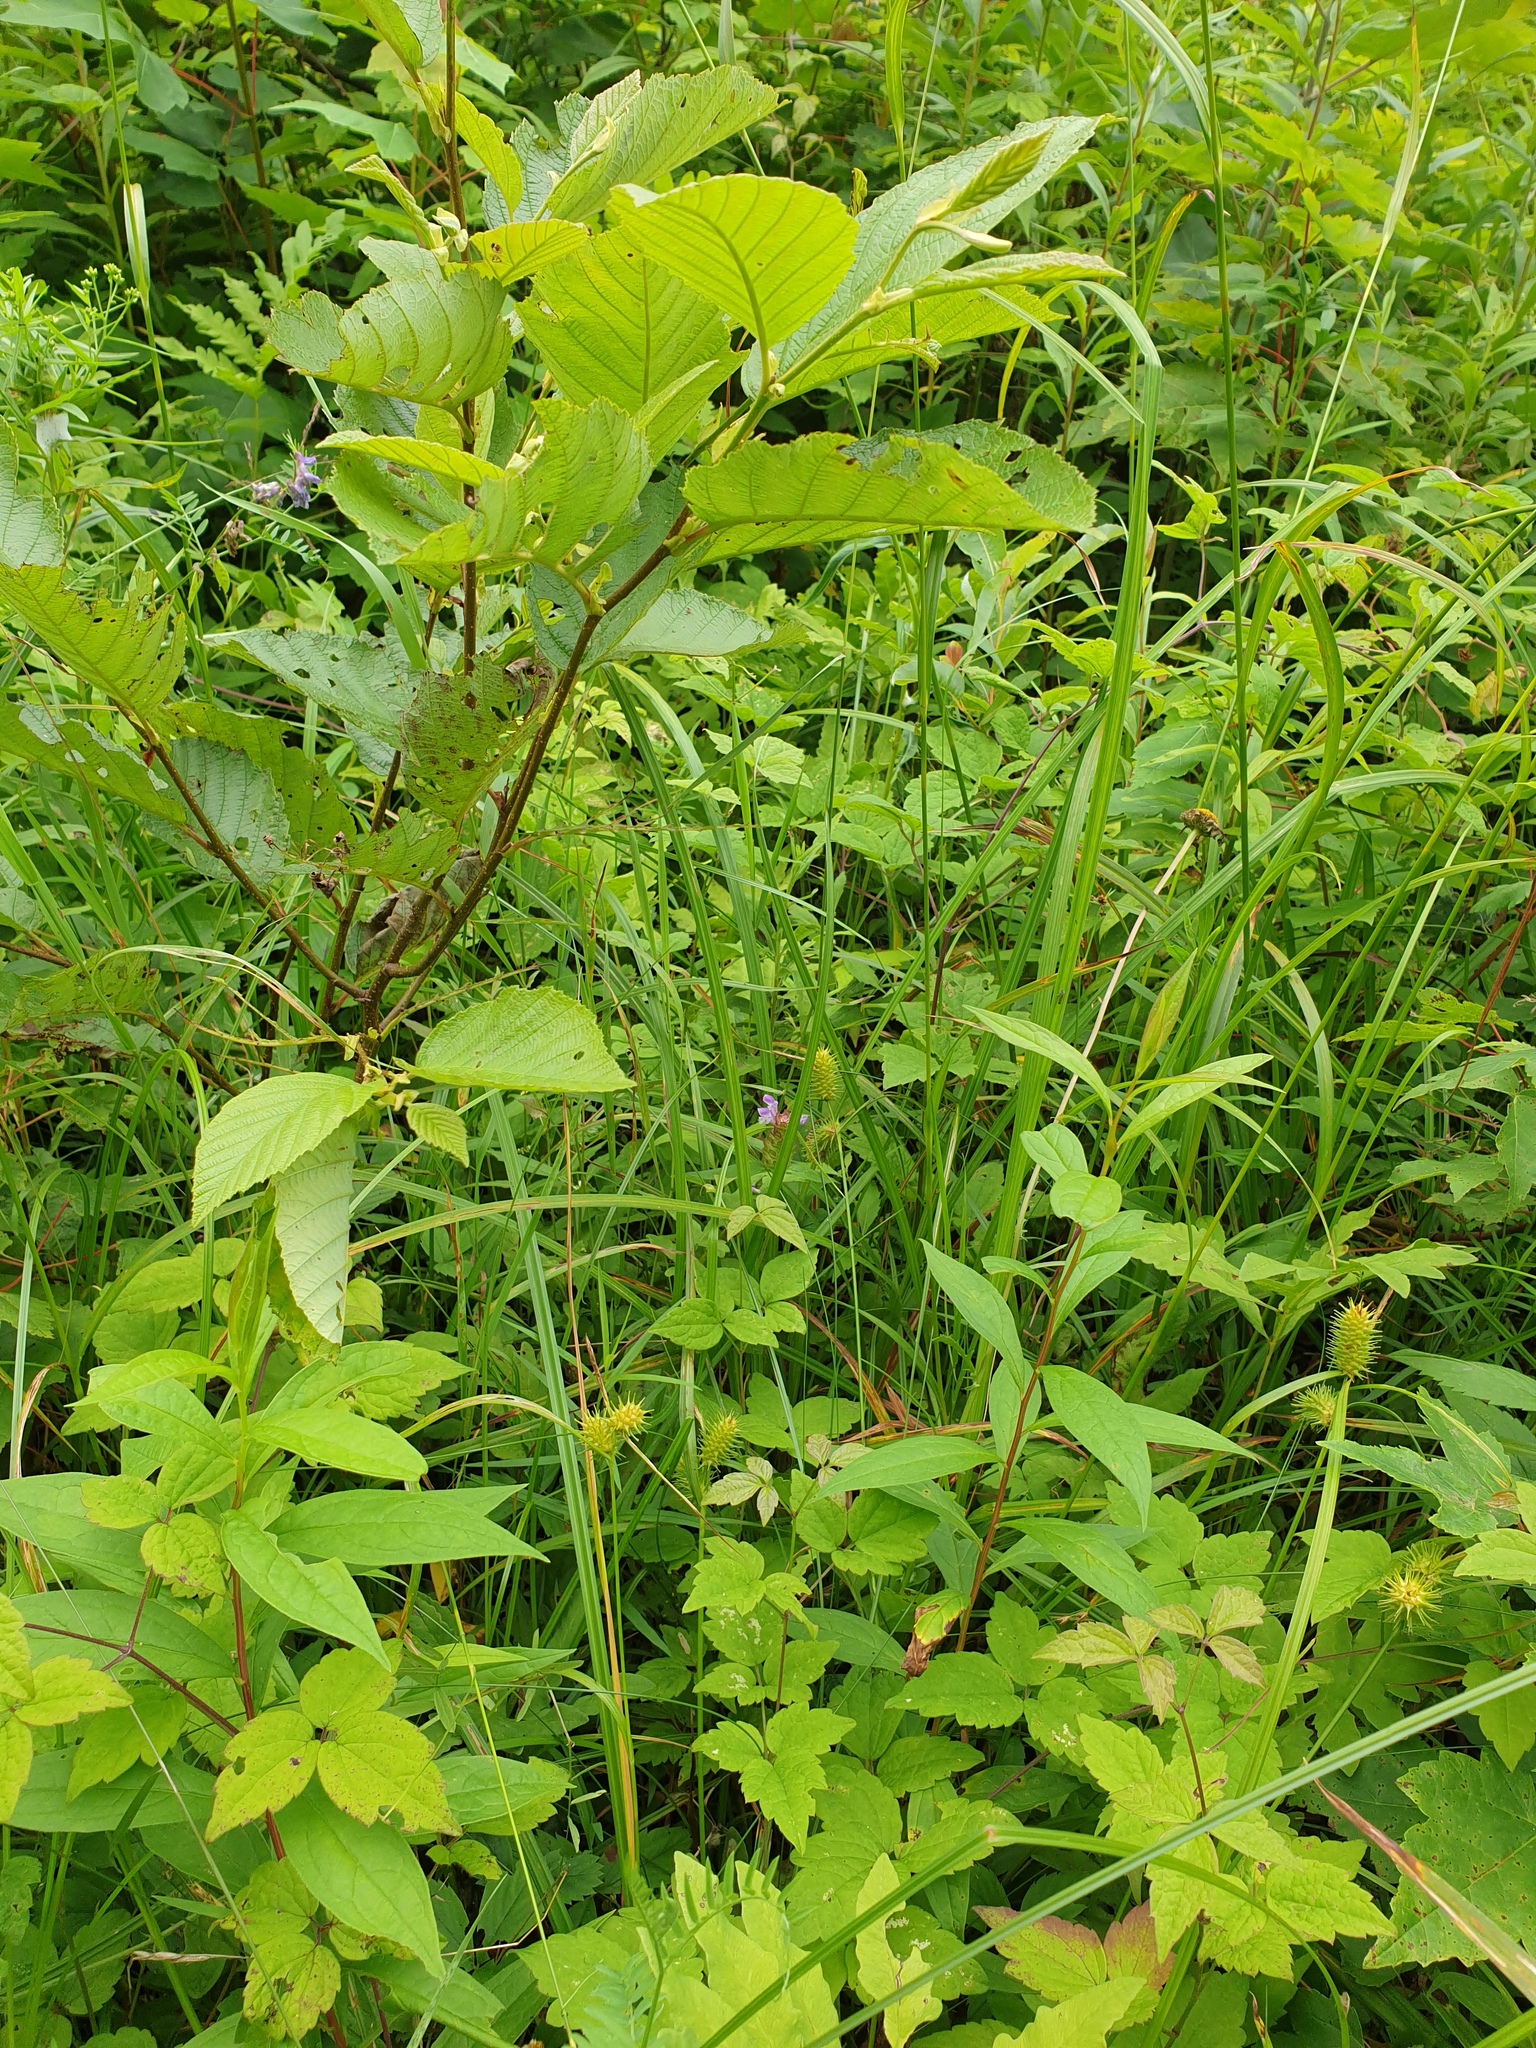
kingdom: Plantae
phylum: Tracheophyta
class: Magnoliopsida
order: Ranunculales
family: Ranunculaceae
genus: Clematis
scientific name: Clematis virginiana
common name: Virgin's-bower
